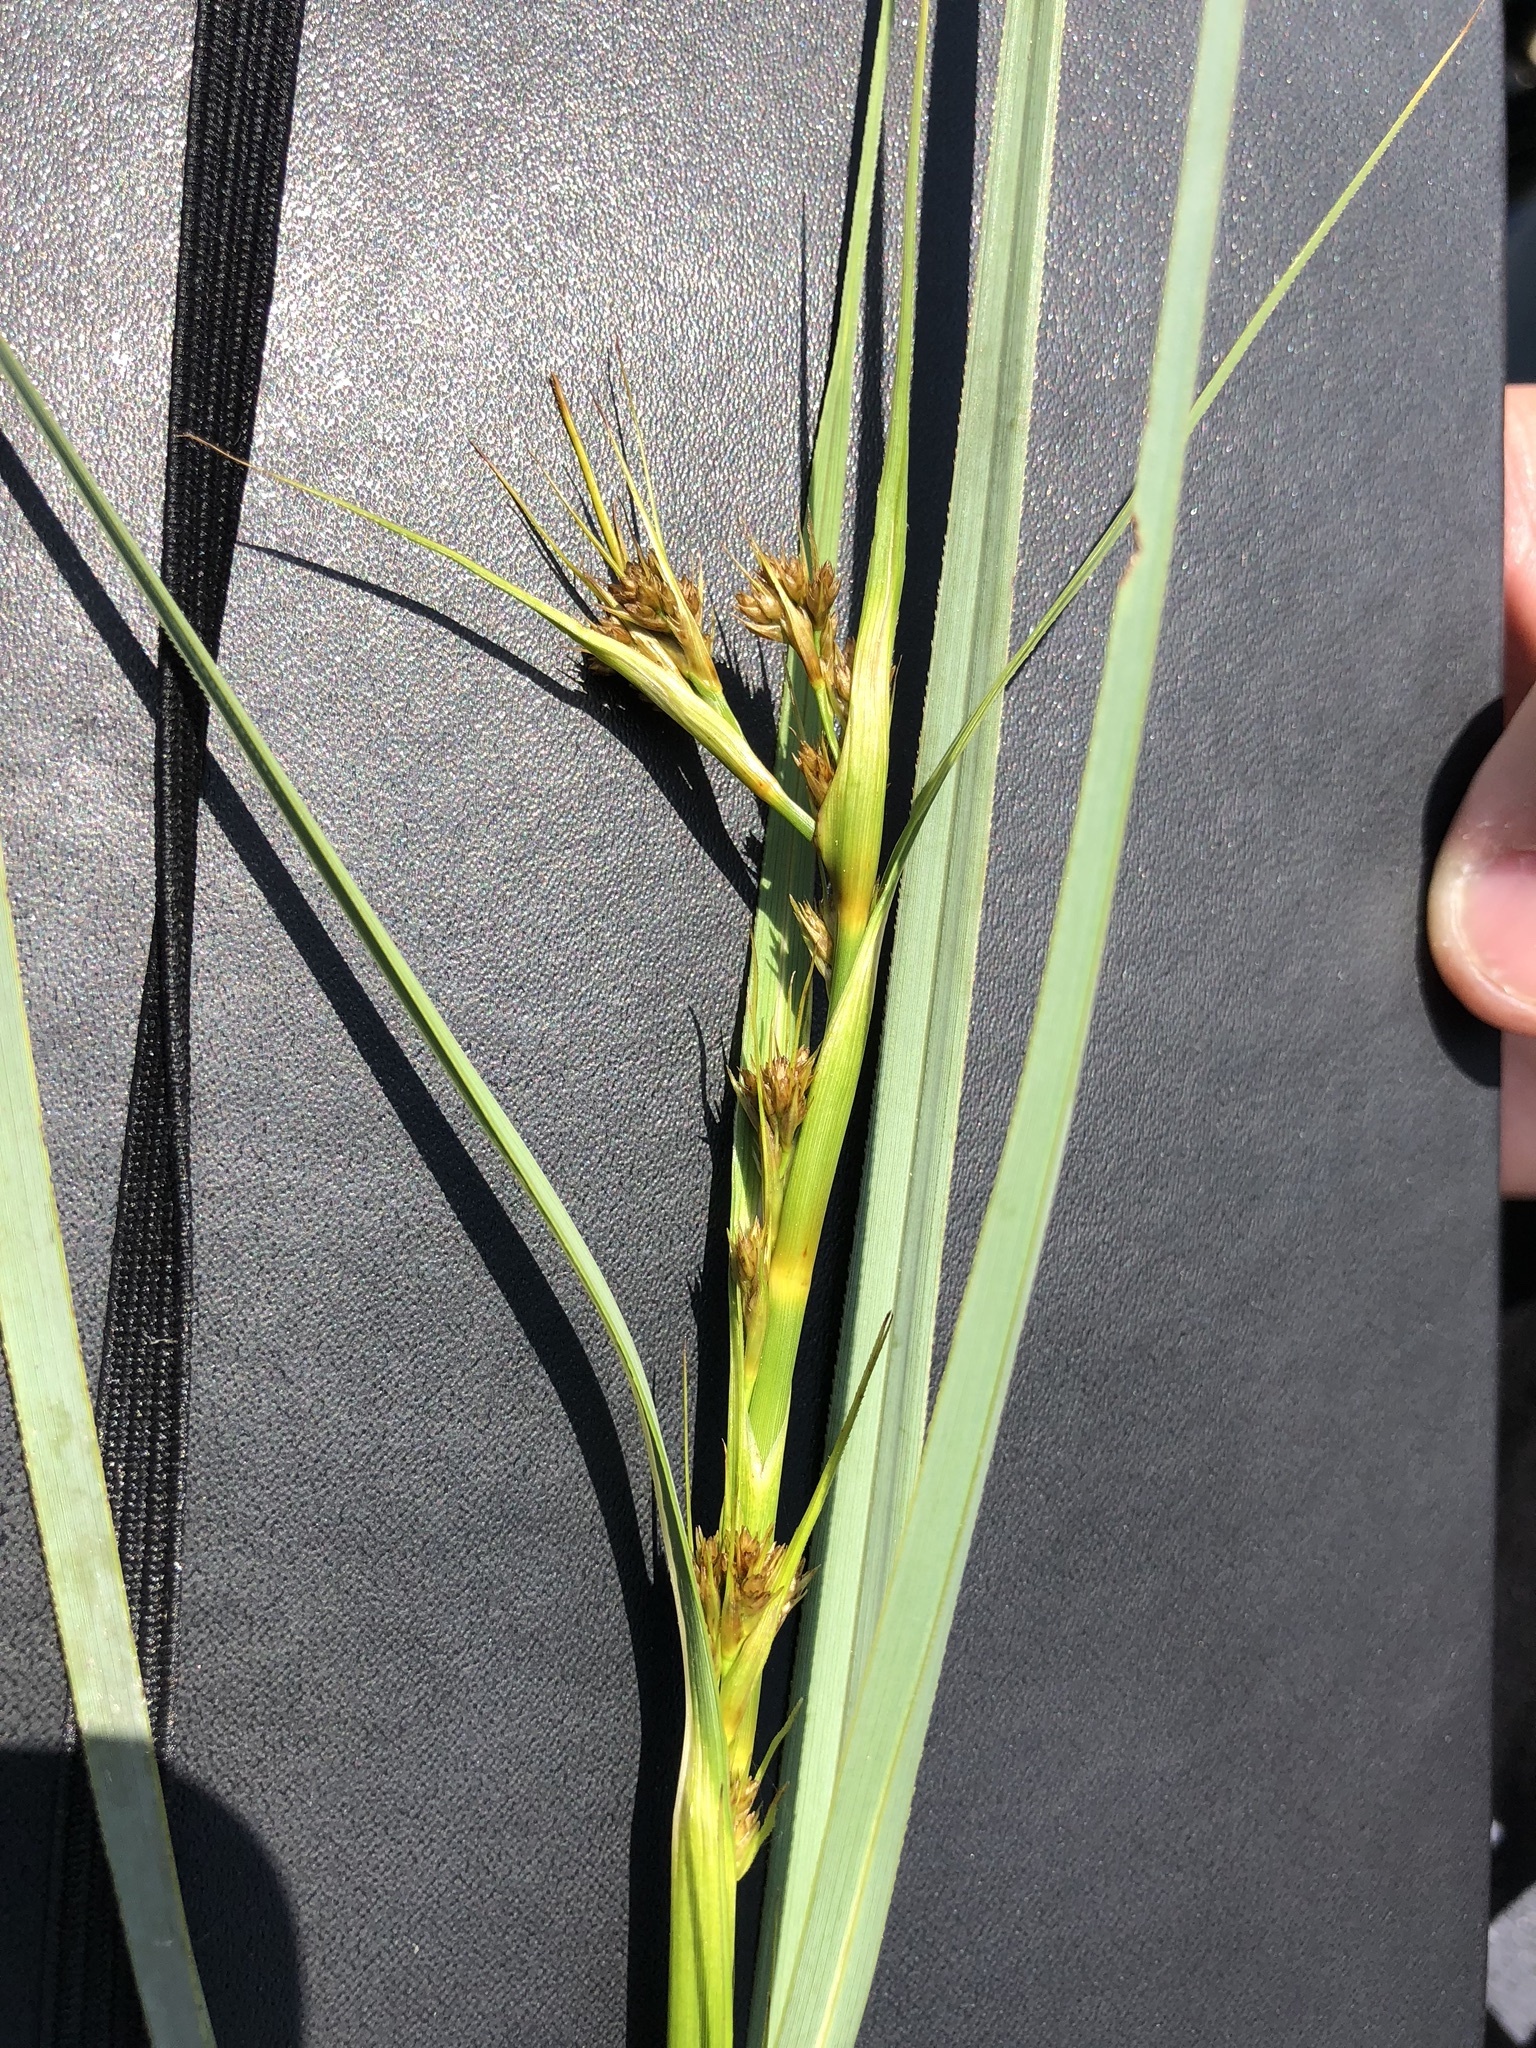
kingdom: Plantae
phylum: Tracheophyta
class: Liliopsida
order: Poales
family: Cyperaceae
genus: Cladium
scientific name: Cladium mariscus
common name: Great fen-sedge
